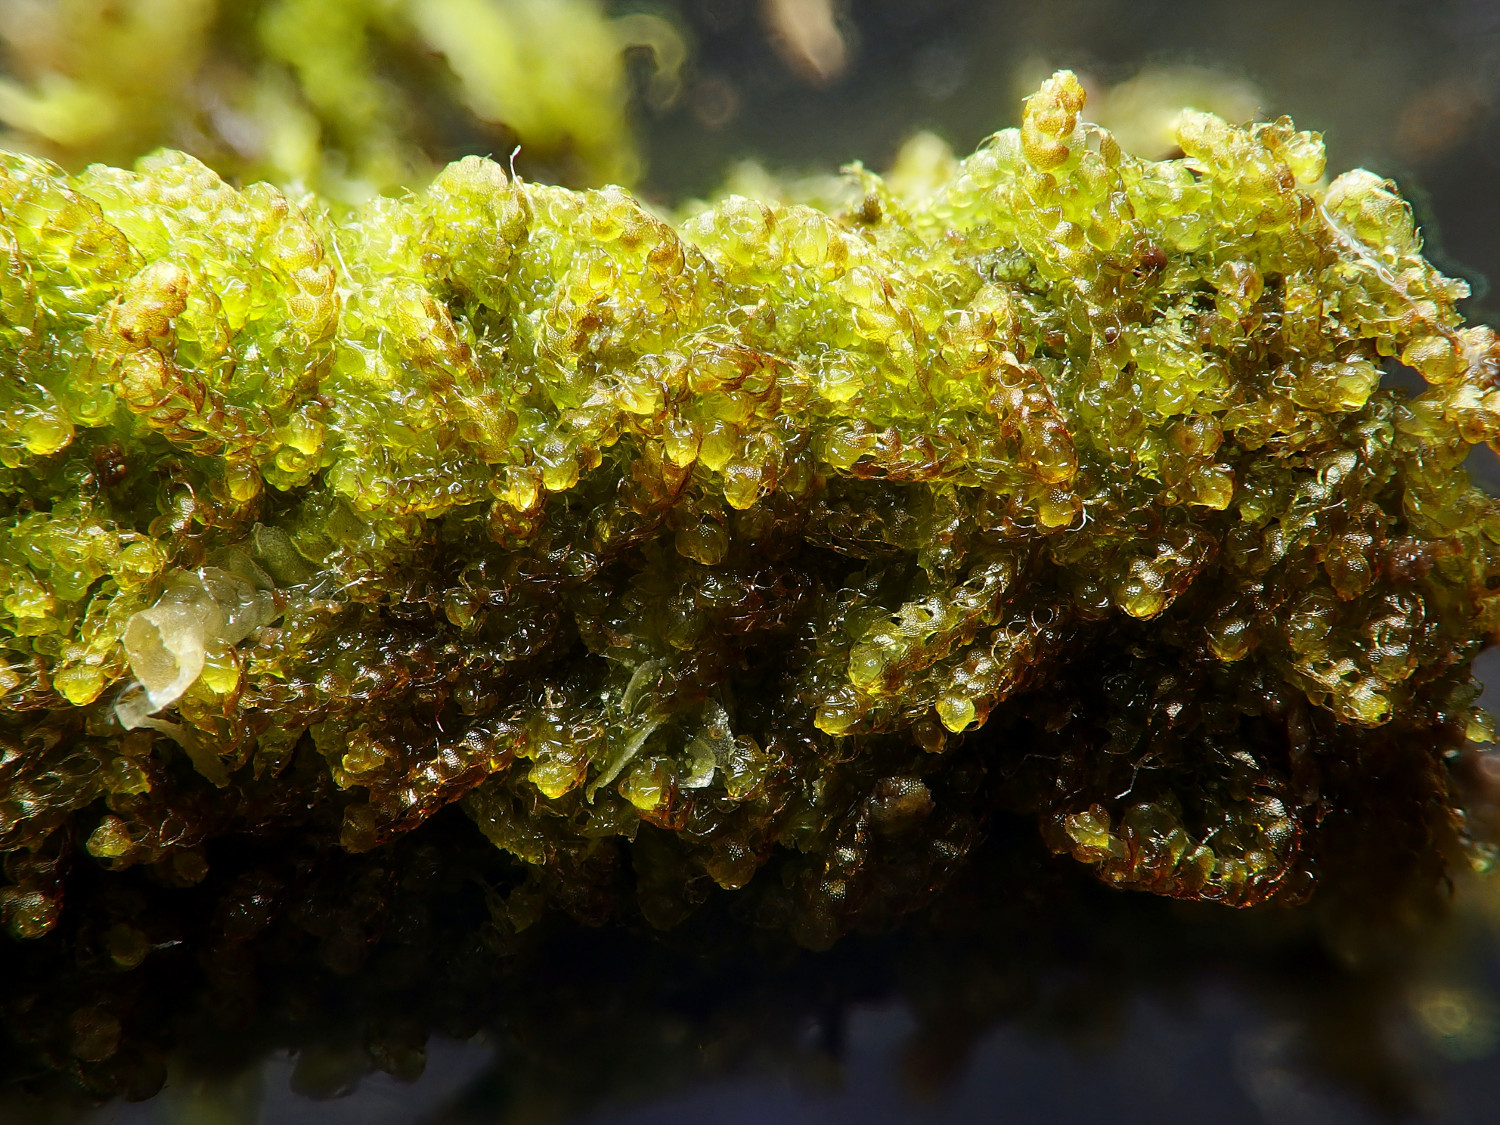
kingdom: Plantae
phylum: Marchantiophyta
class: Jungermanniopsida
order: Jungermanniales
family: Cephaloziaceae
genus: Nowellia
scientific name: Nowellia curvifolia
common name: Wood rustwort
